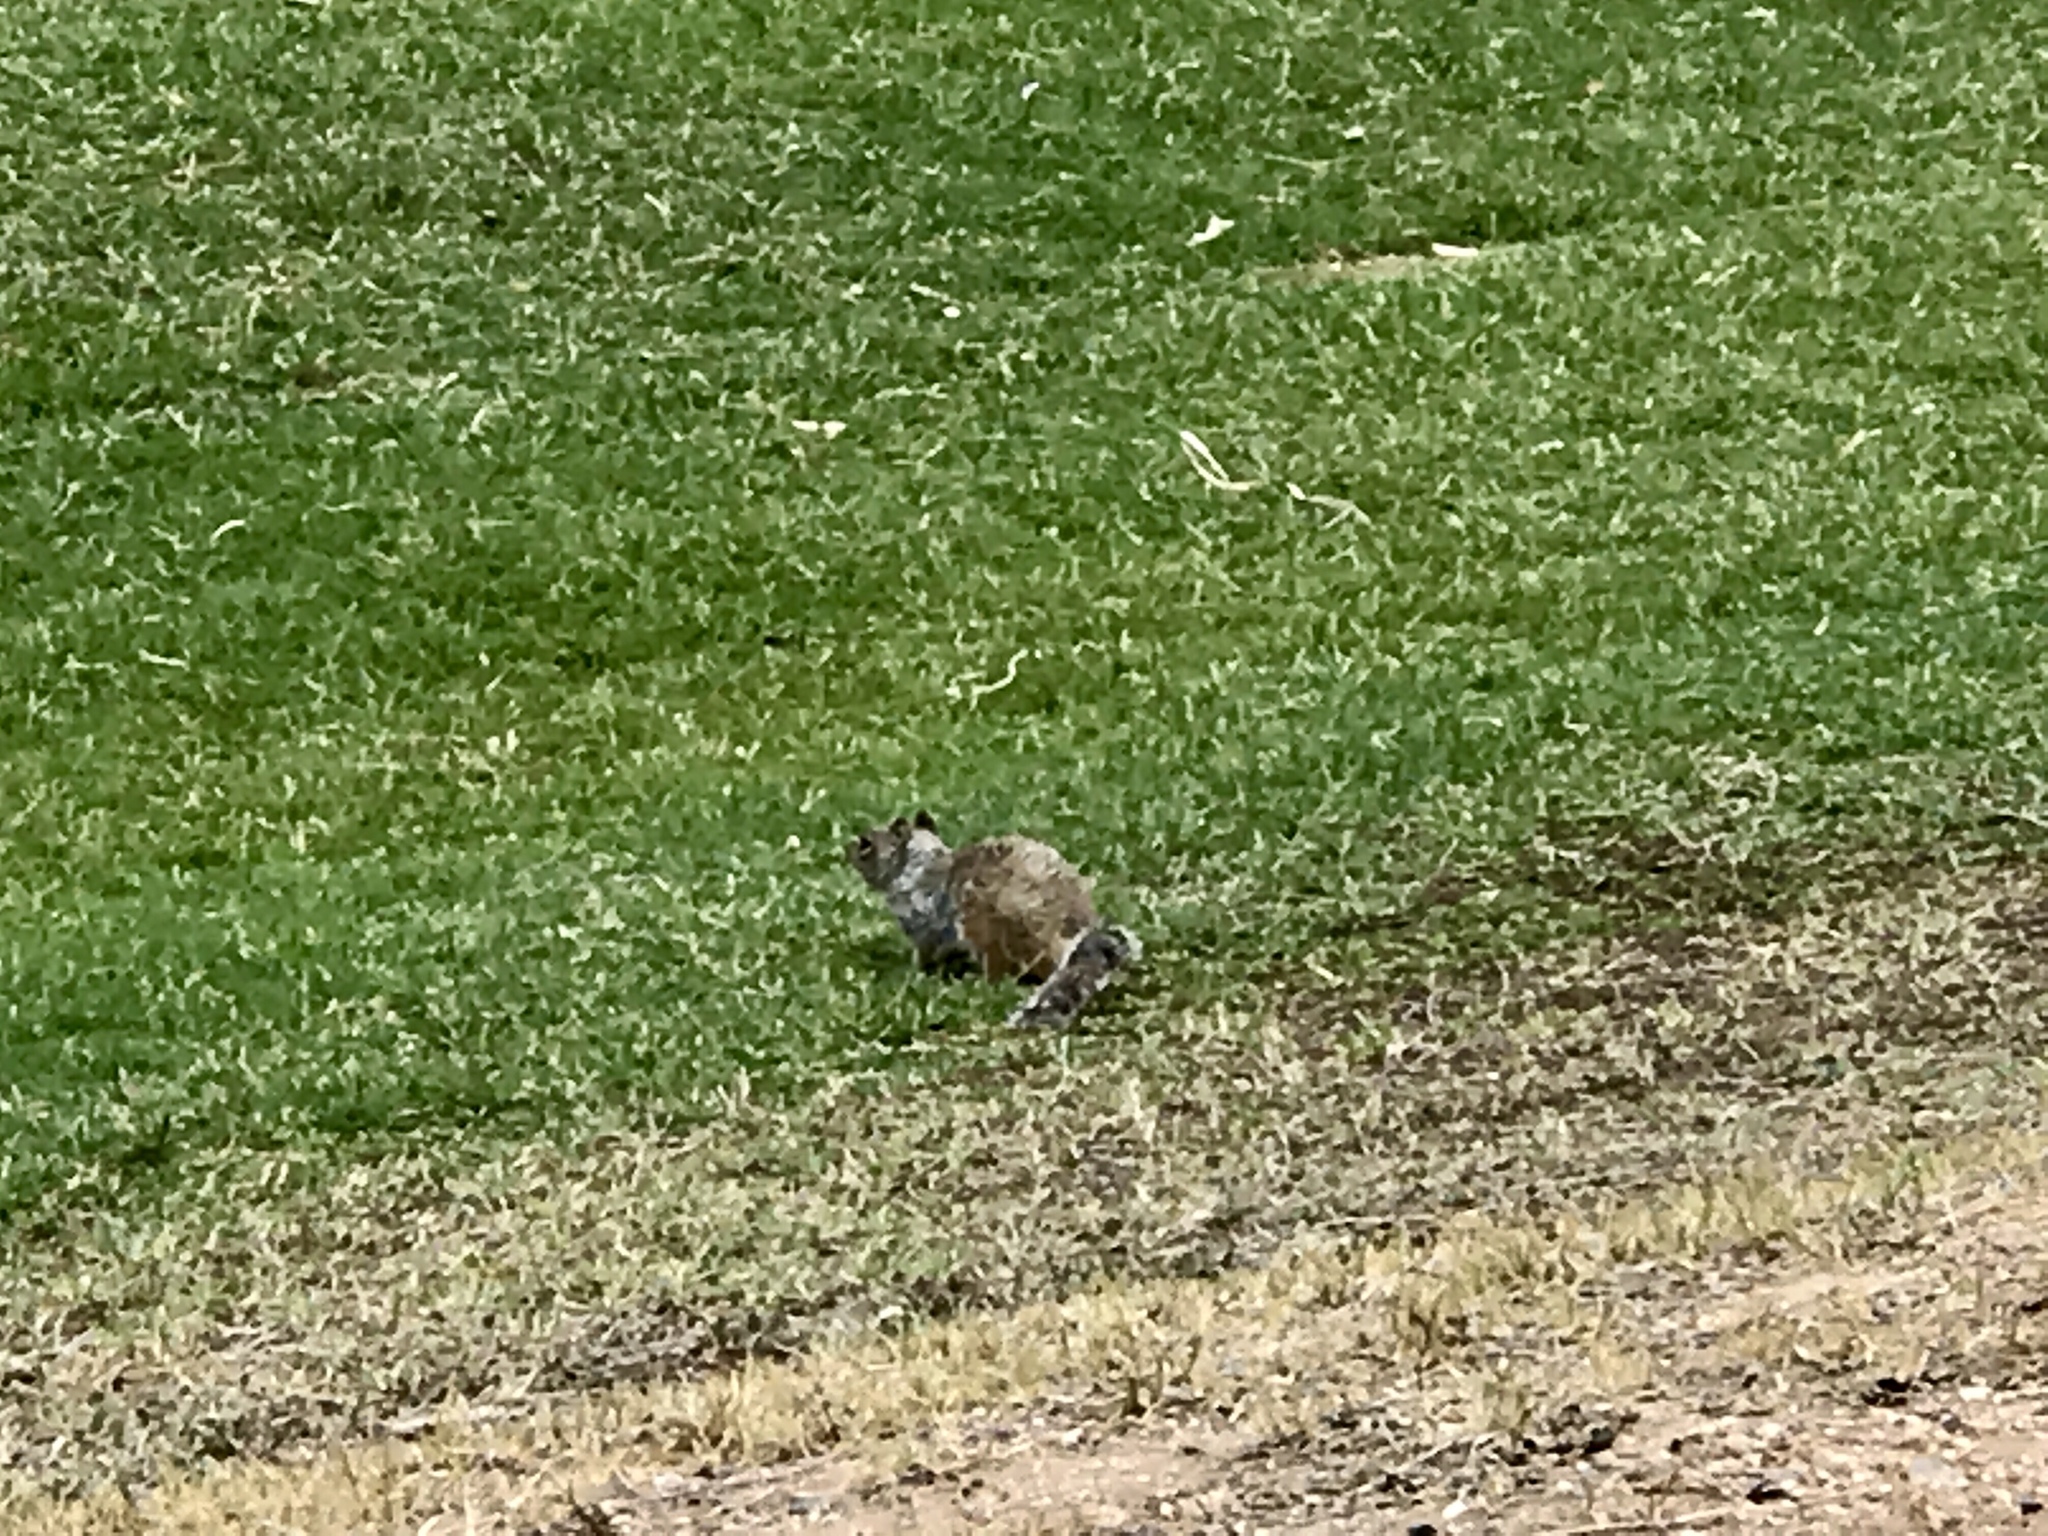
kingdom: Animalia
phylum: Chordata
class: Mammalia
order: Rodentia
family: Sciuridae
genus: Otospermophilus
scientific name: Otospermophilus variegatus
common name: Rock squirrel
